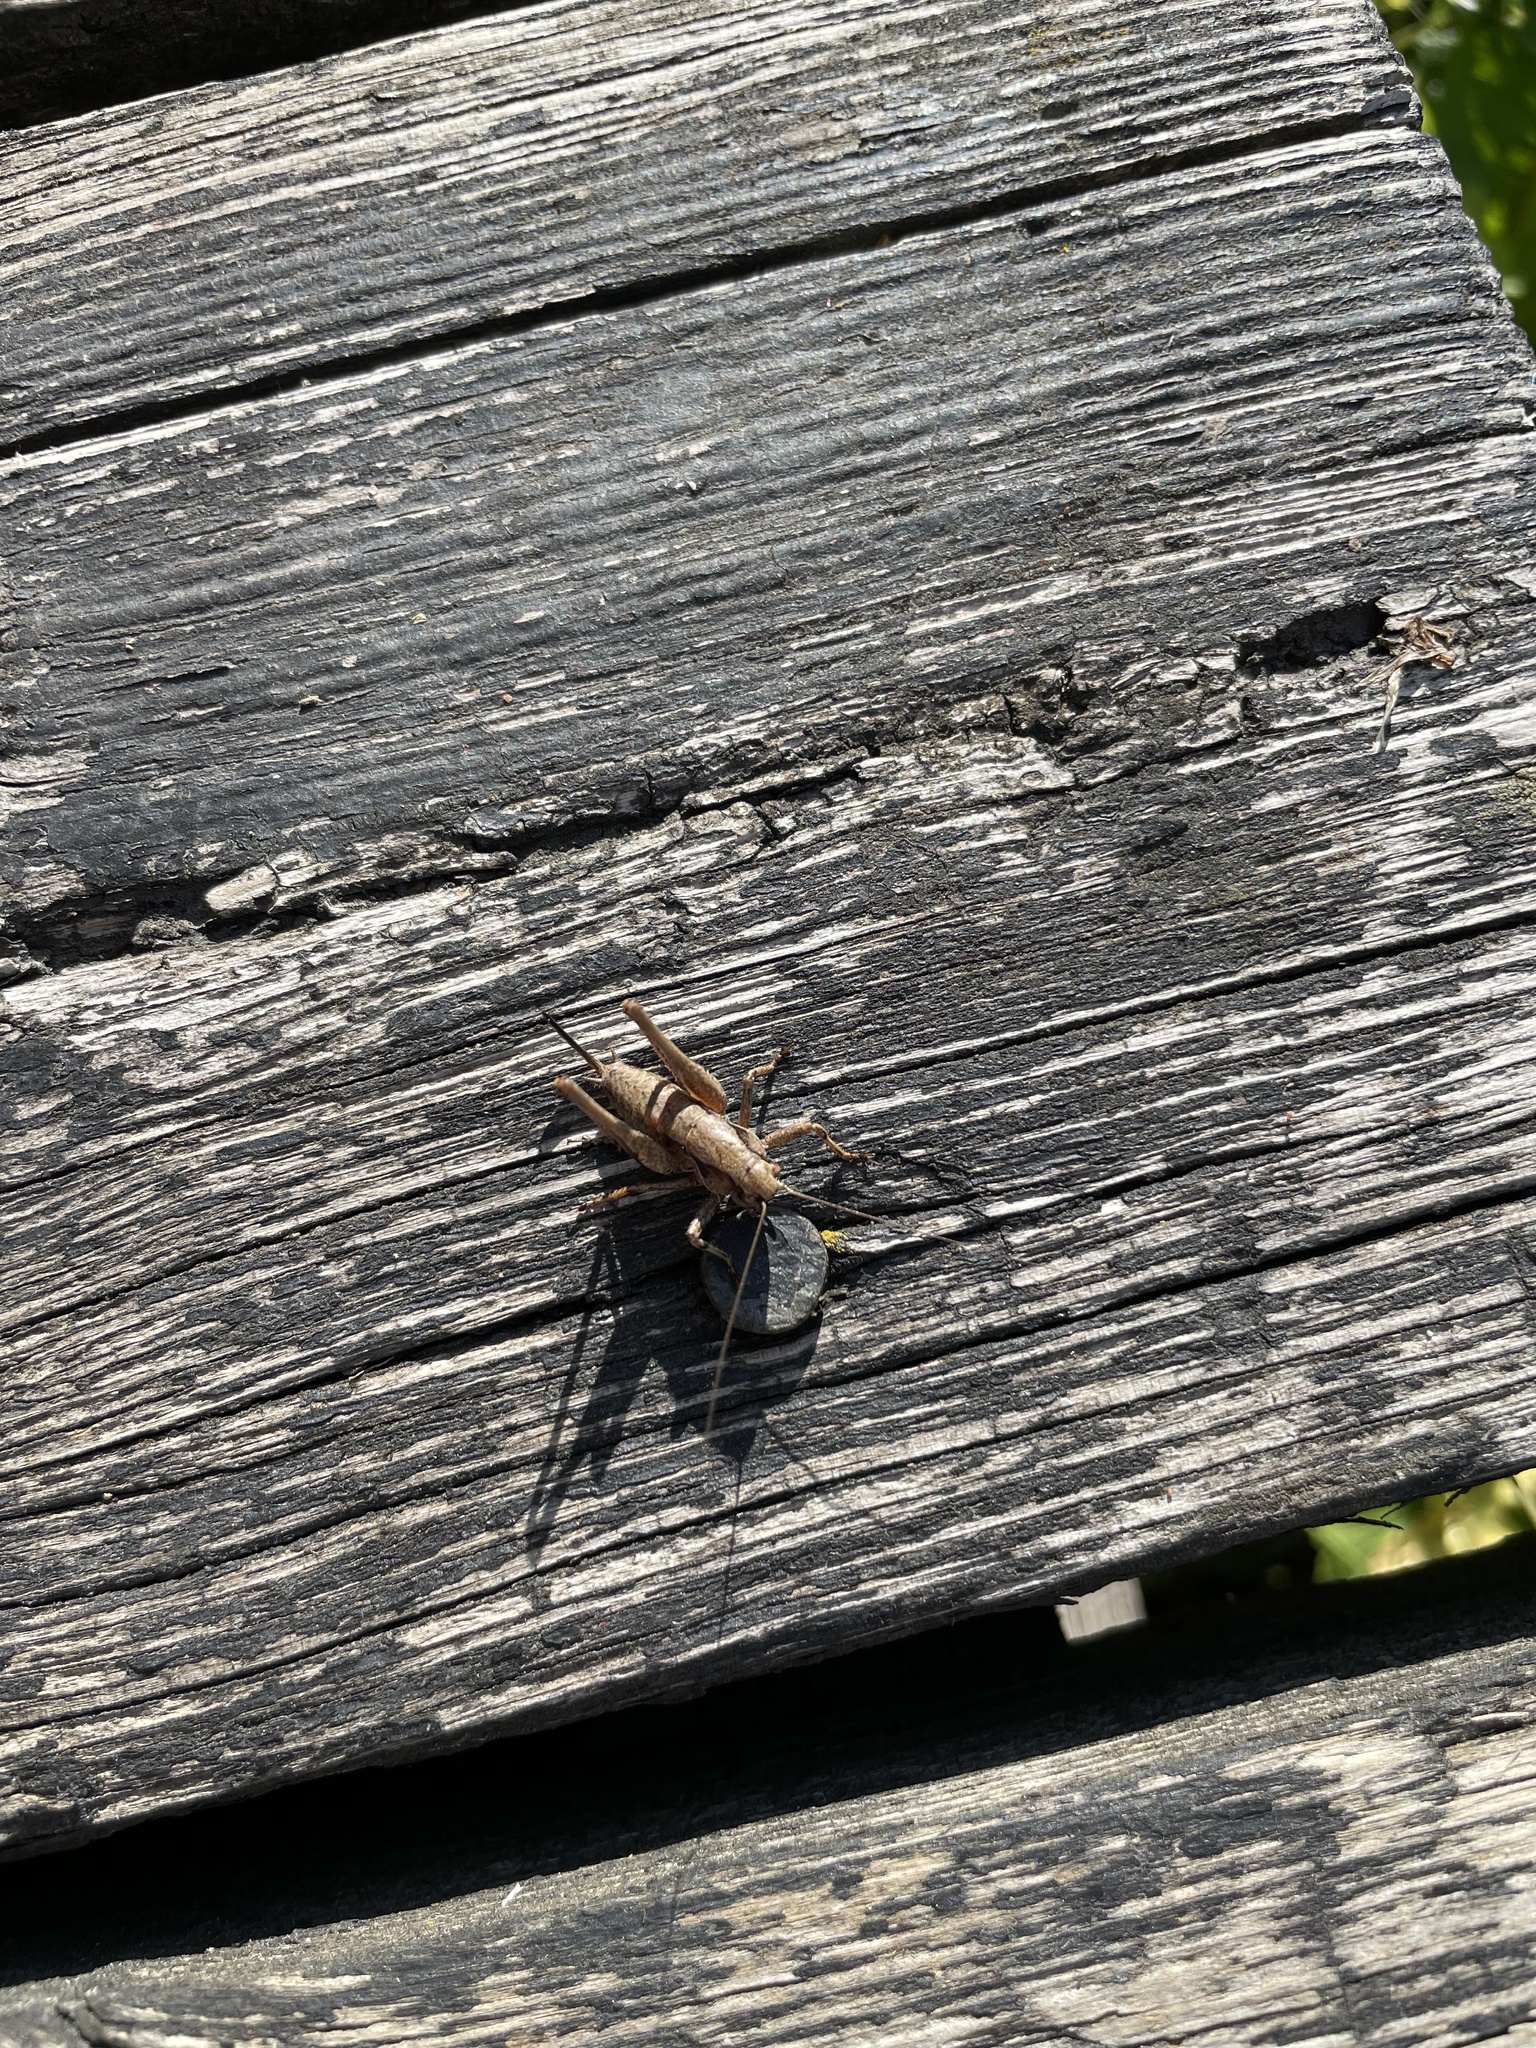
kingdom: Animalia
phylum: Arthropoda
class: Insecta
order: Orthoptera
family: Tettigoniidae
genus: Pholidoptera
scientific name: Pholidoptera griseoaptera
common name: Dark bush-cricket
